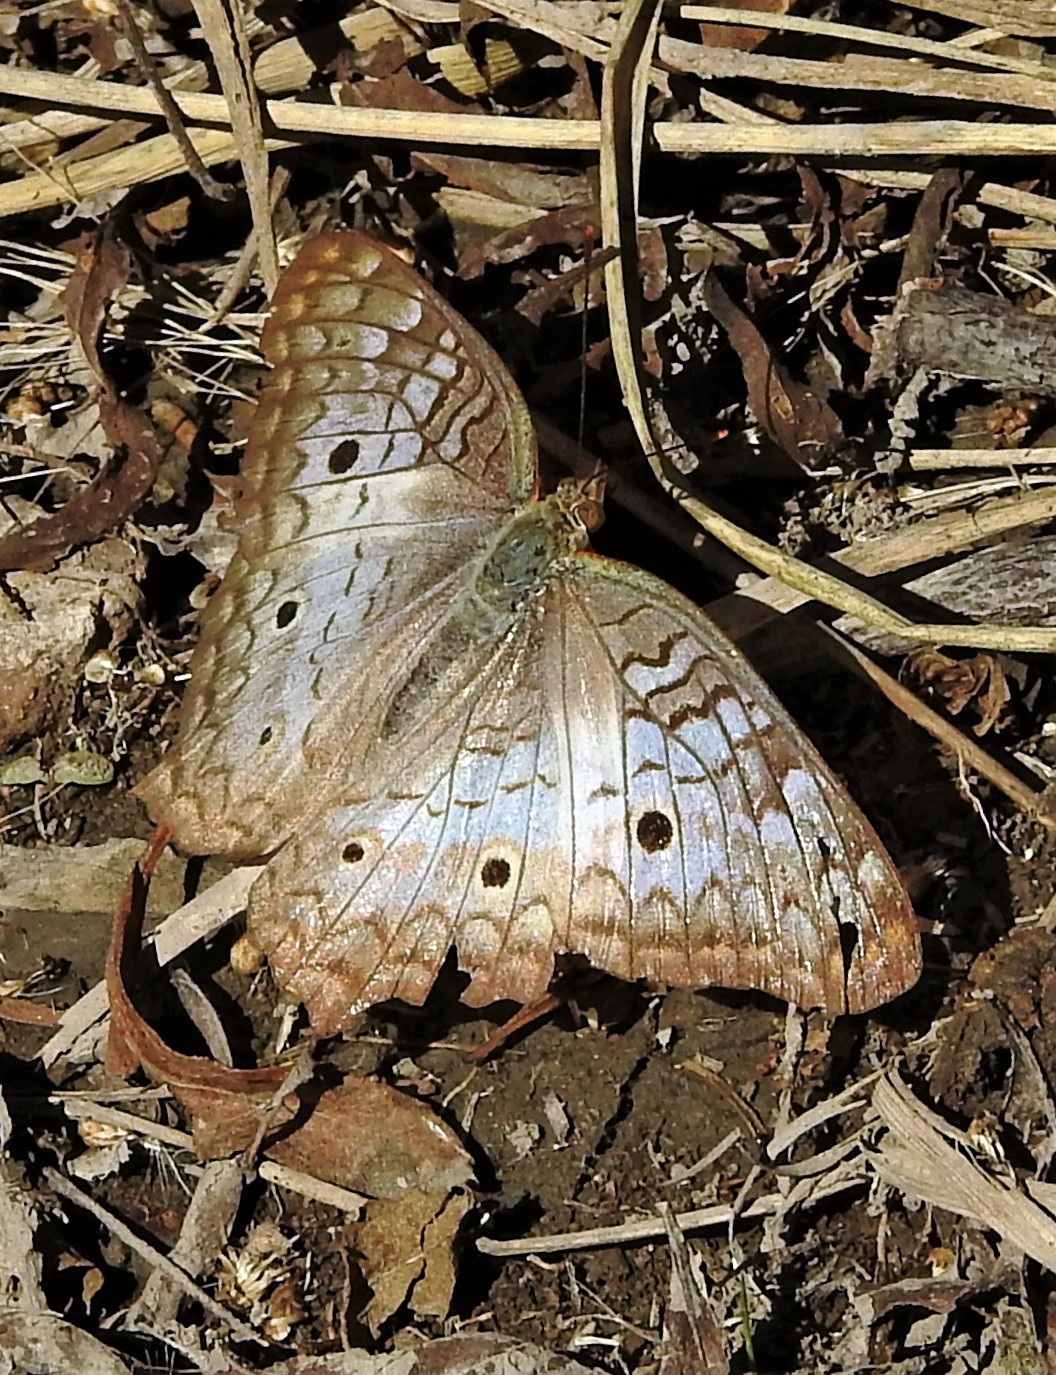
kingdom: Animalia
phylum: Arthropoda
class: Insecta
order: Lepidoptera
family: Nymphalidae
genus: Anartia
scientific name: Anartia jatrophae
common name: White peacock
